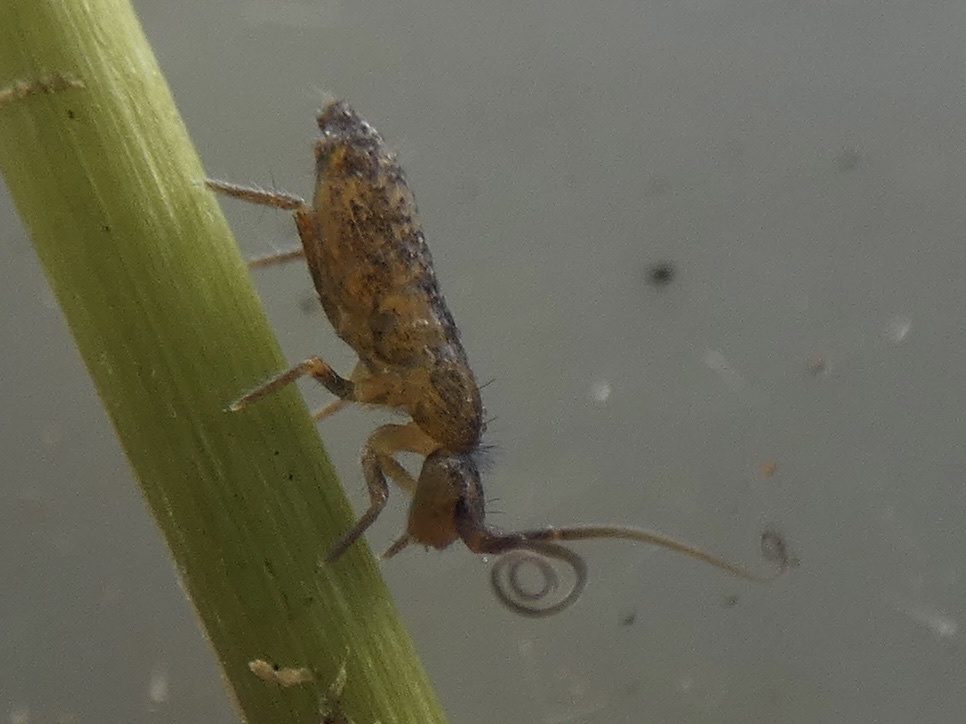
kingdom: Animalia
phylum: Arthropoda
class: Collembola
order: Entomobryomorpha
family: Tomoceridae
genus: Pogonognathellus
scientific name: Pogonognathellus longicornis
